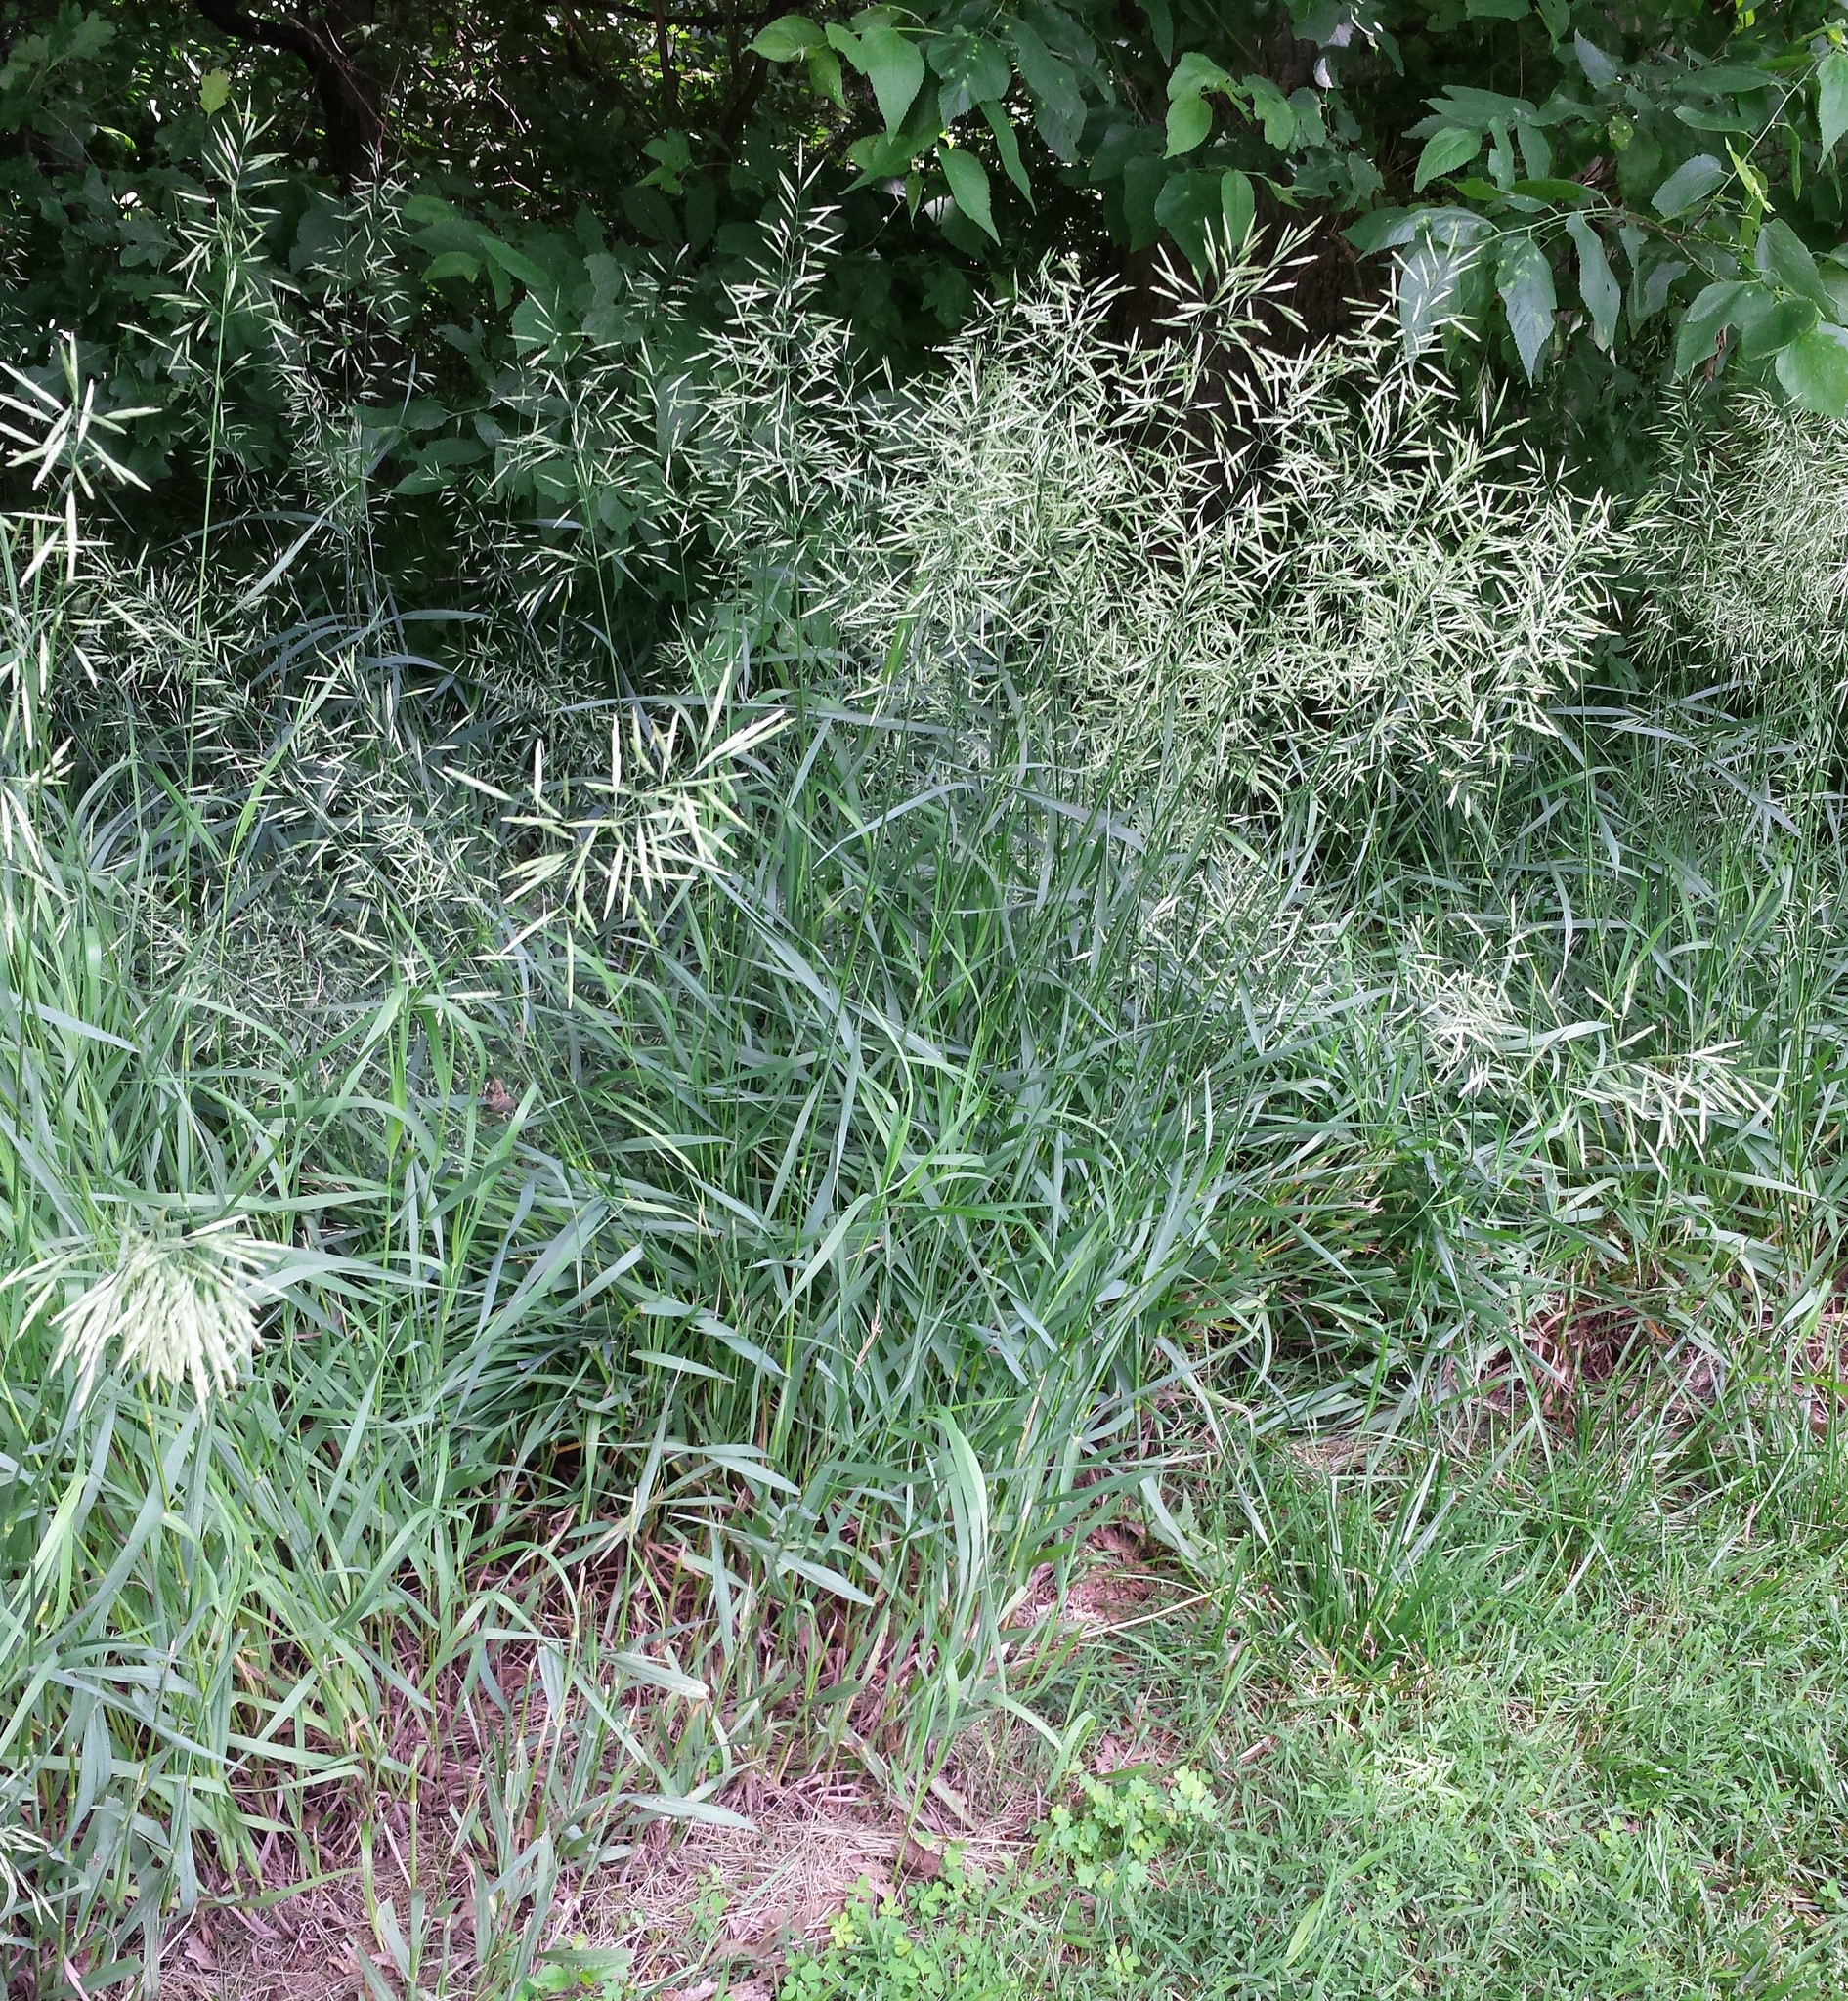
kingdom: Plantae
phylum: Tracheophyta
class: Liliopsida
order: Poales
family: Poaceae
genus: Bromus
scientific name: Bromus inermis
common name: Smooth brome
